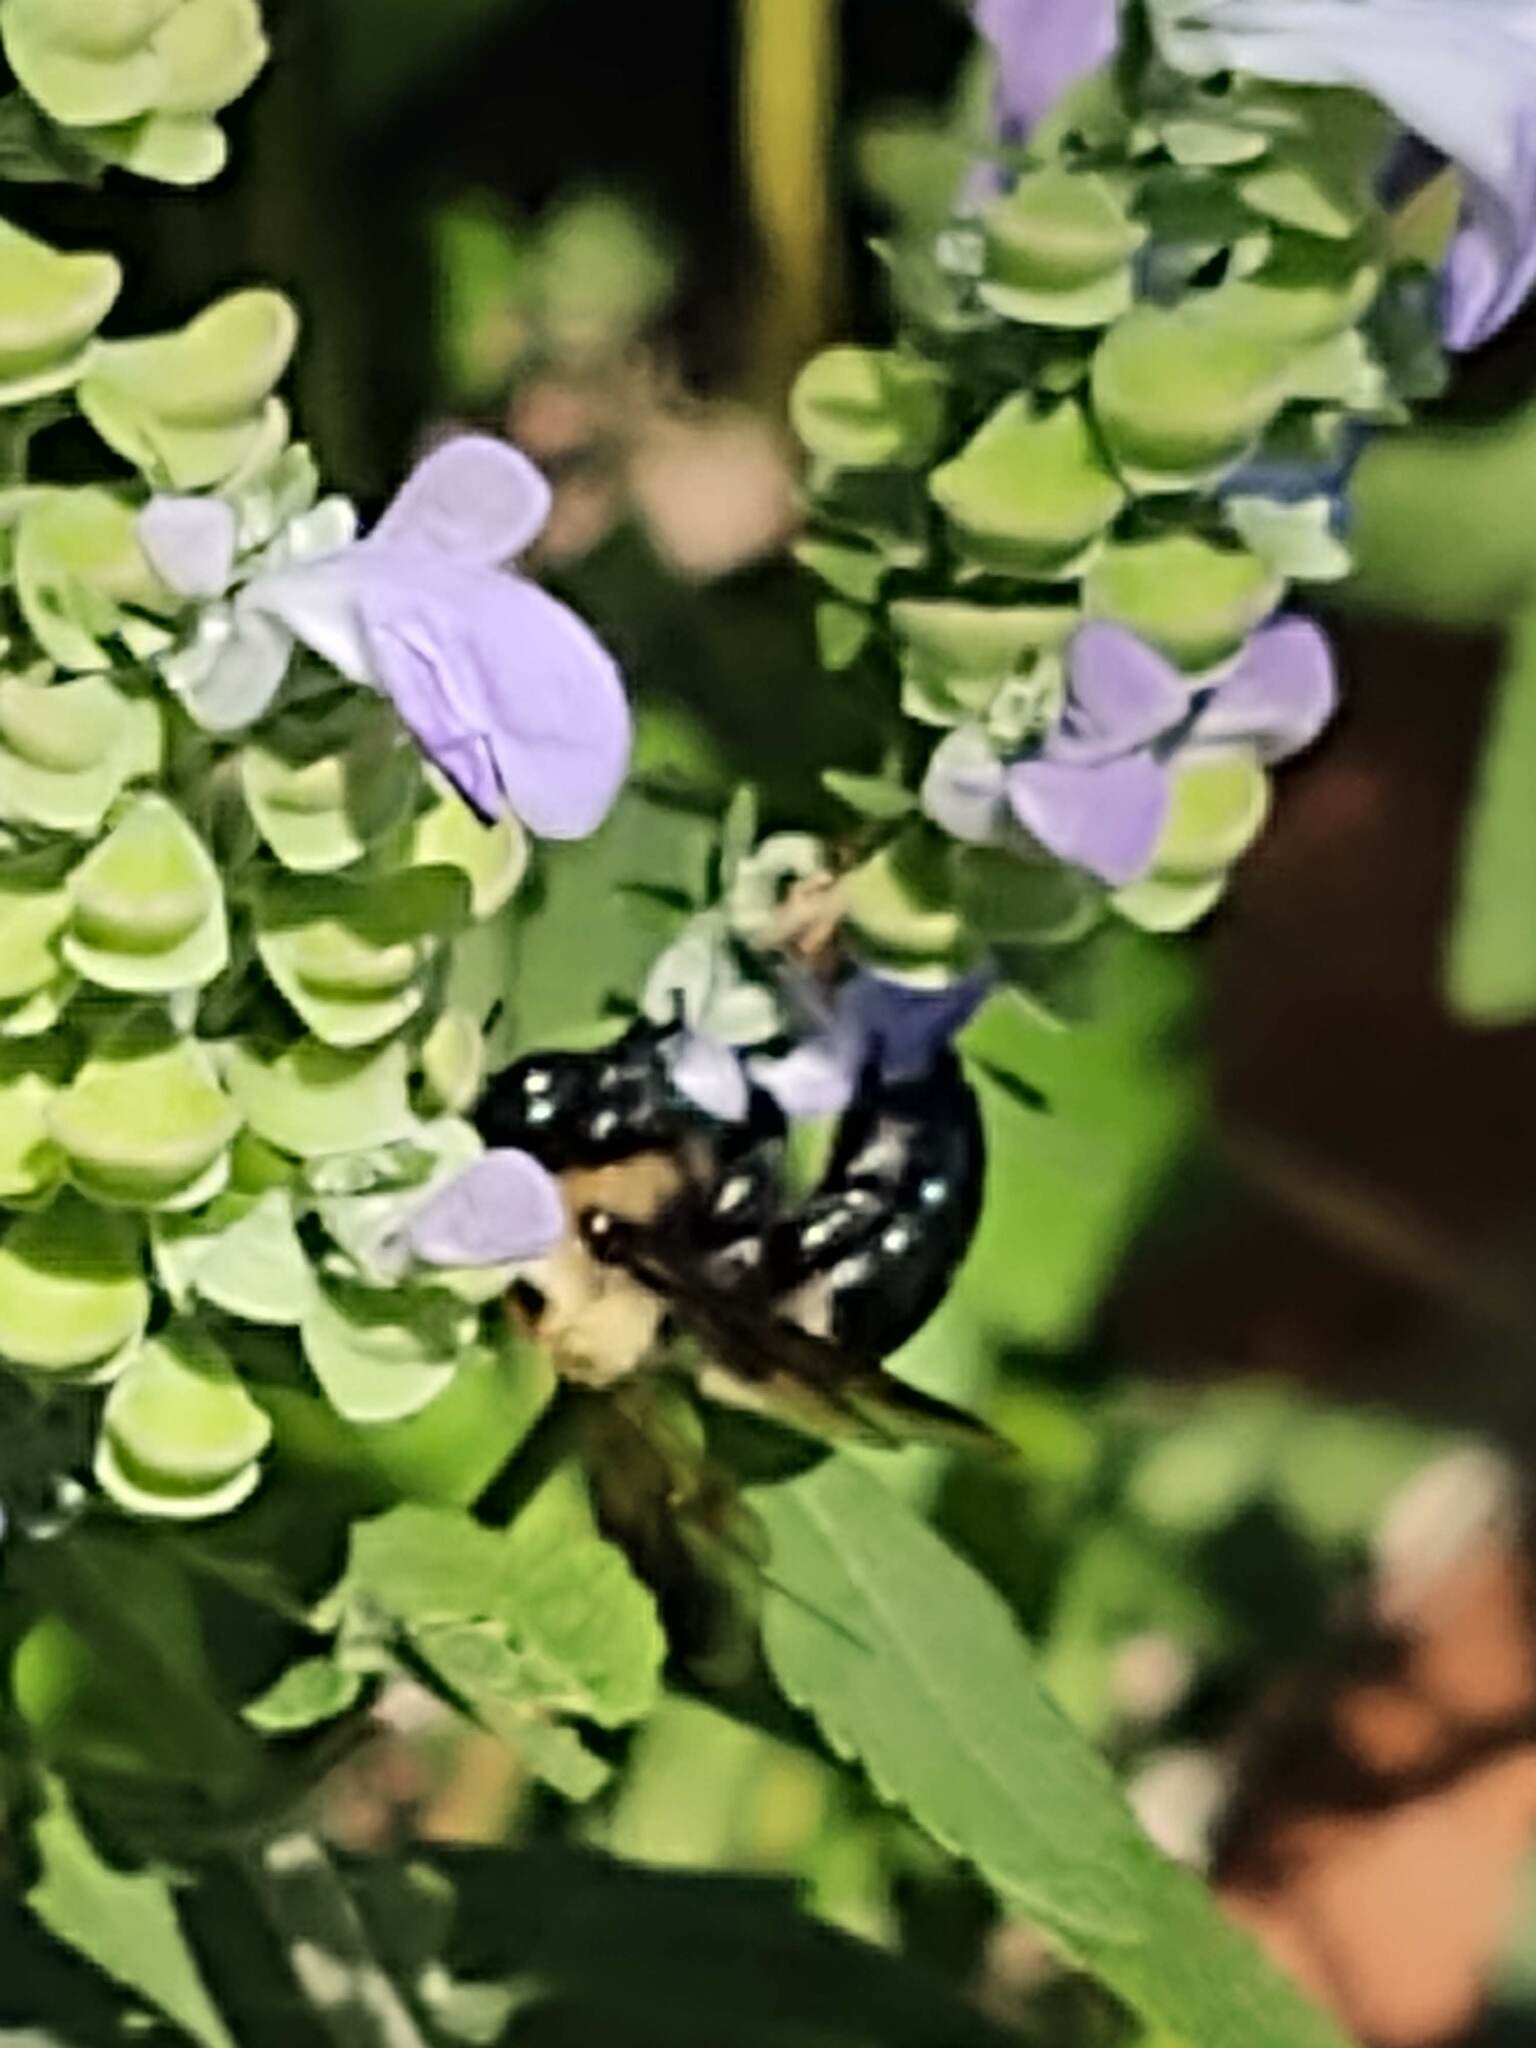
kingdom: Animalia
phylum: Arthropoda
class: Insecta
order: Hymenoptera
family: Apidae
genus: Xylocopa
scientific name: Xylocopa virginica
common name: Carpenter bee
